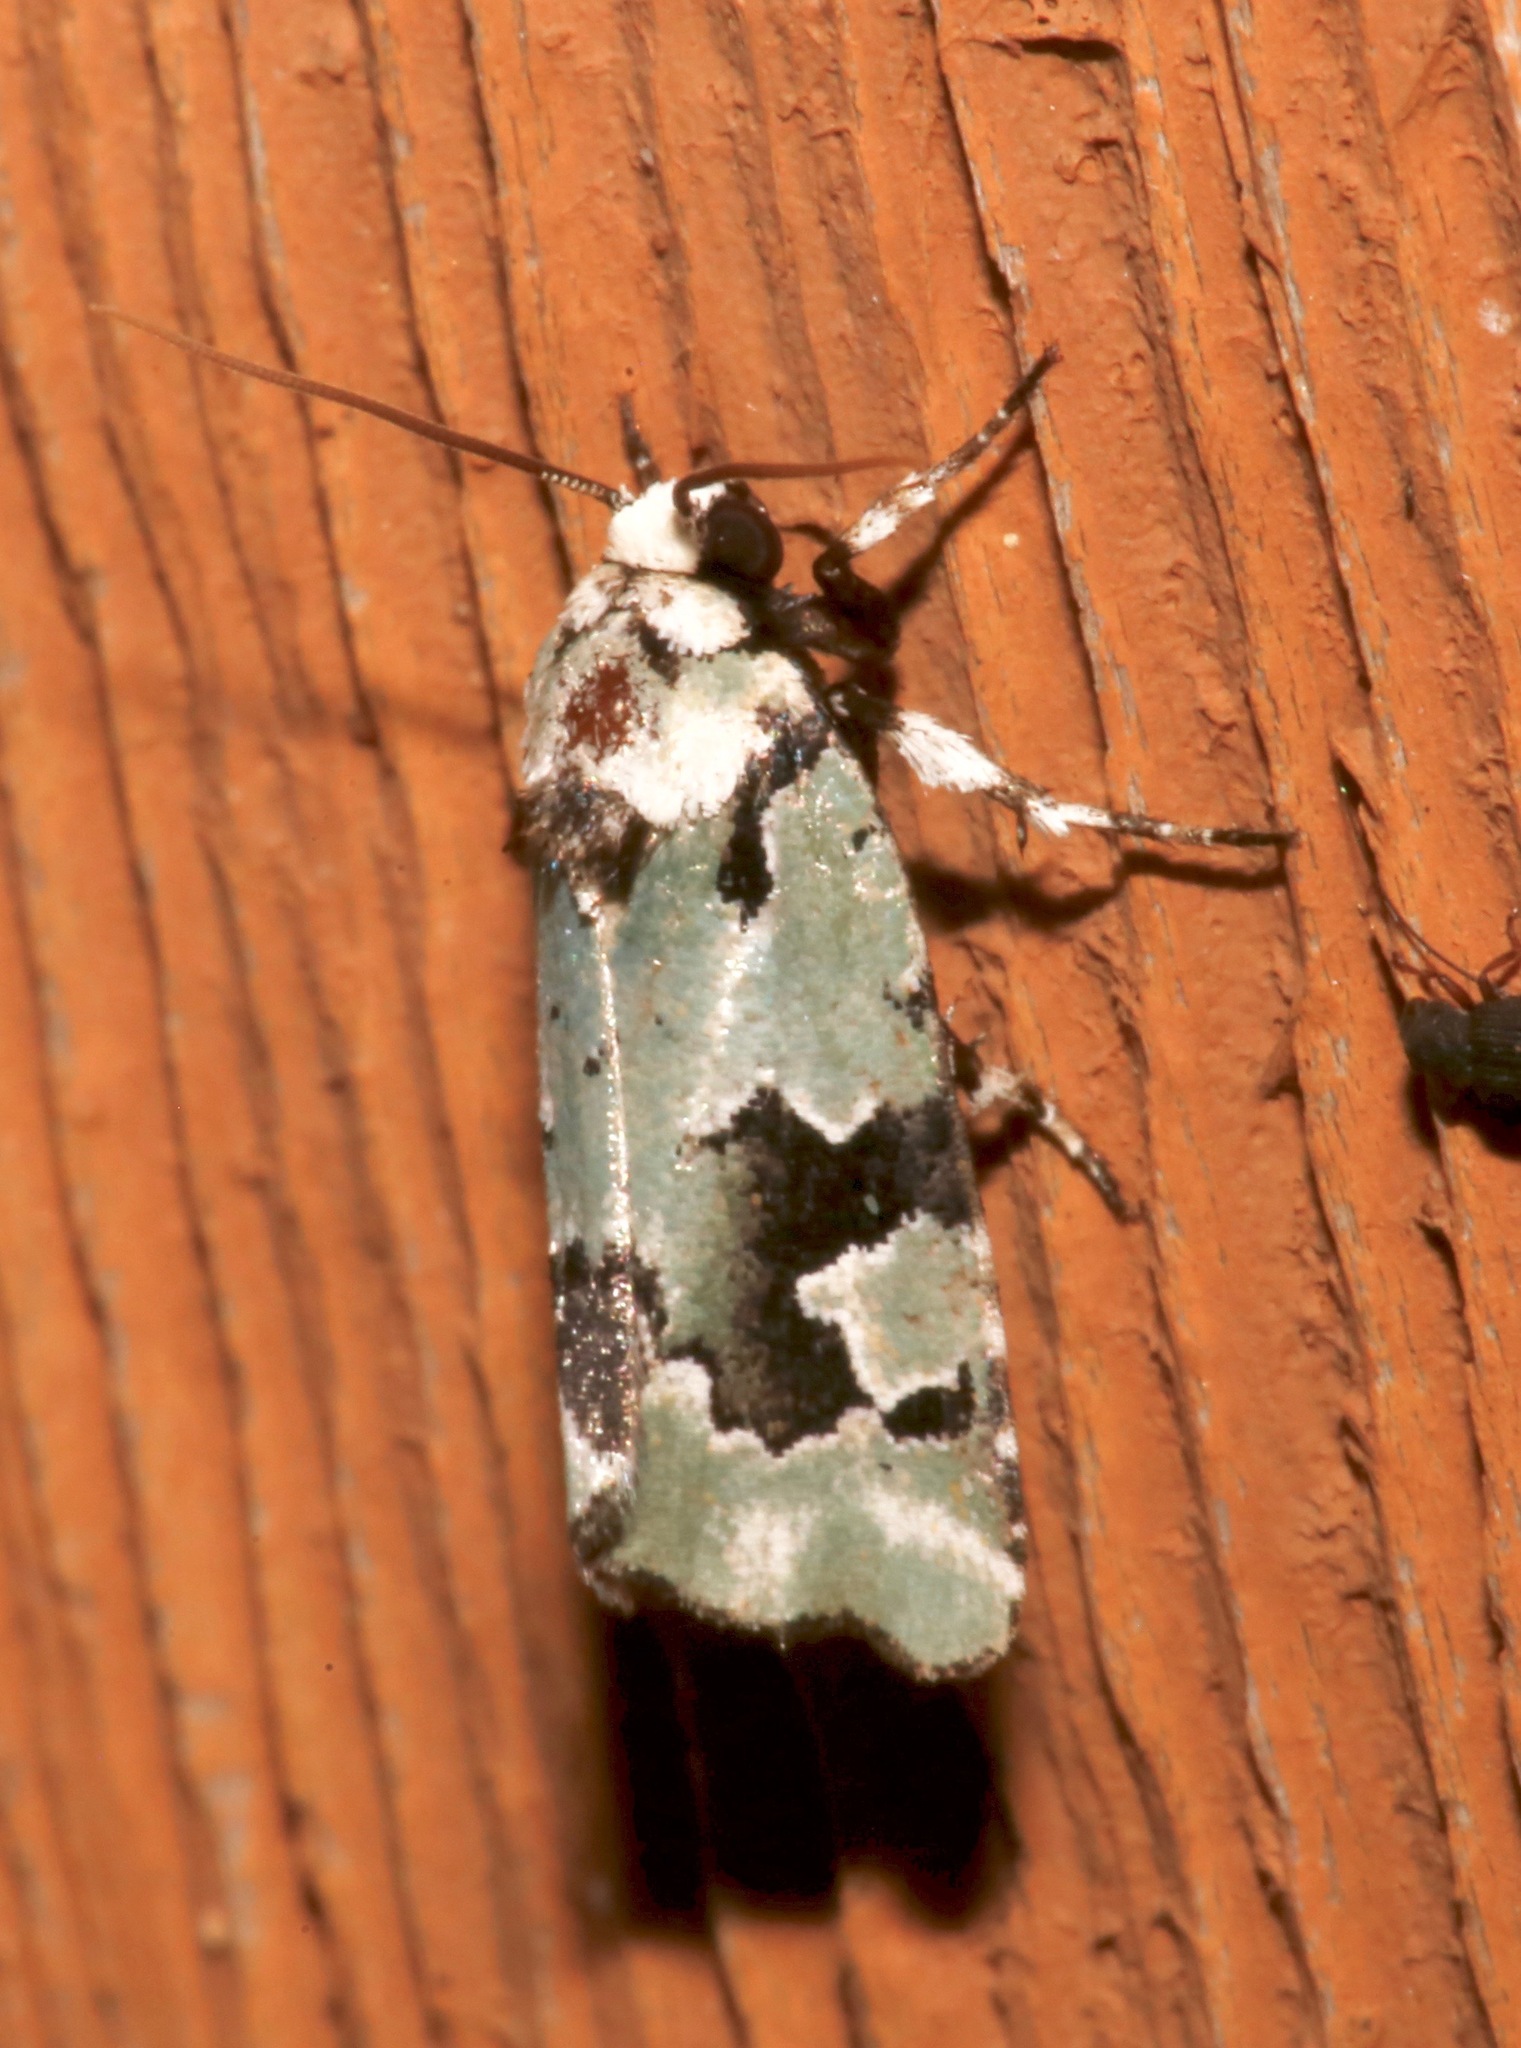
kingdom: Animalia
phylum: Arthropoda
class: Insecta
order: Lepidoptera
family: Noctuidae
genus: Emarginea
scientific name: Emarginea percara
